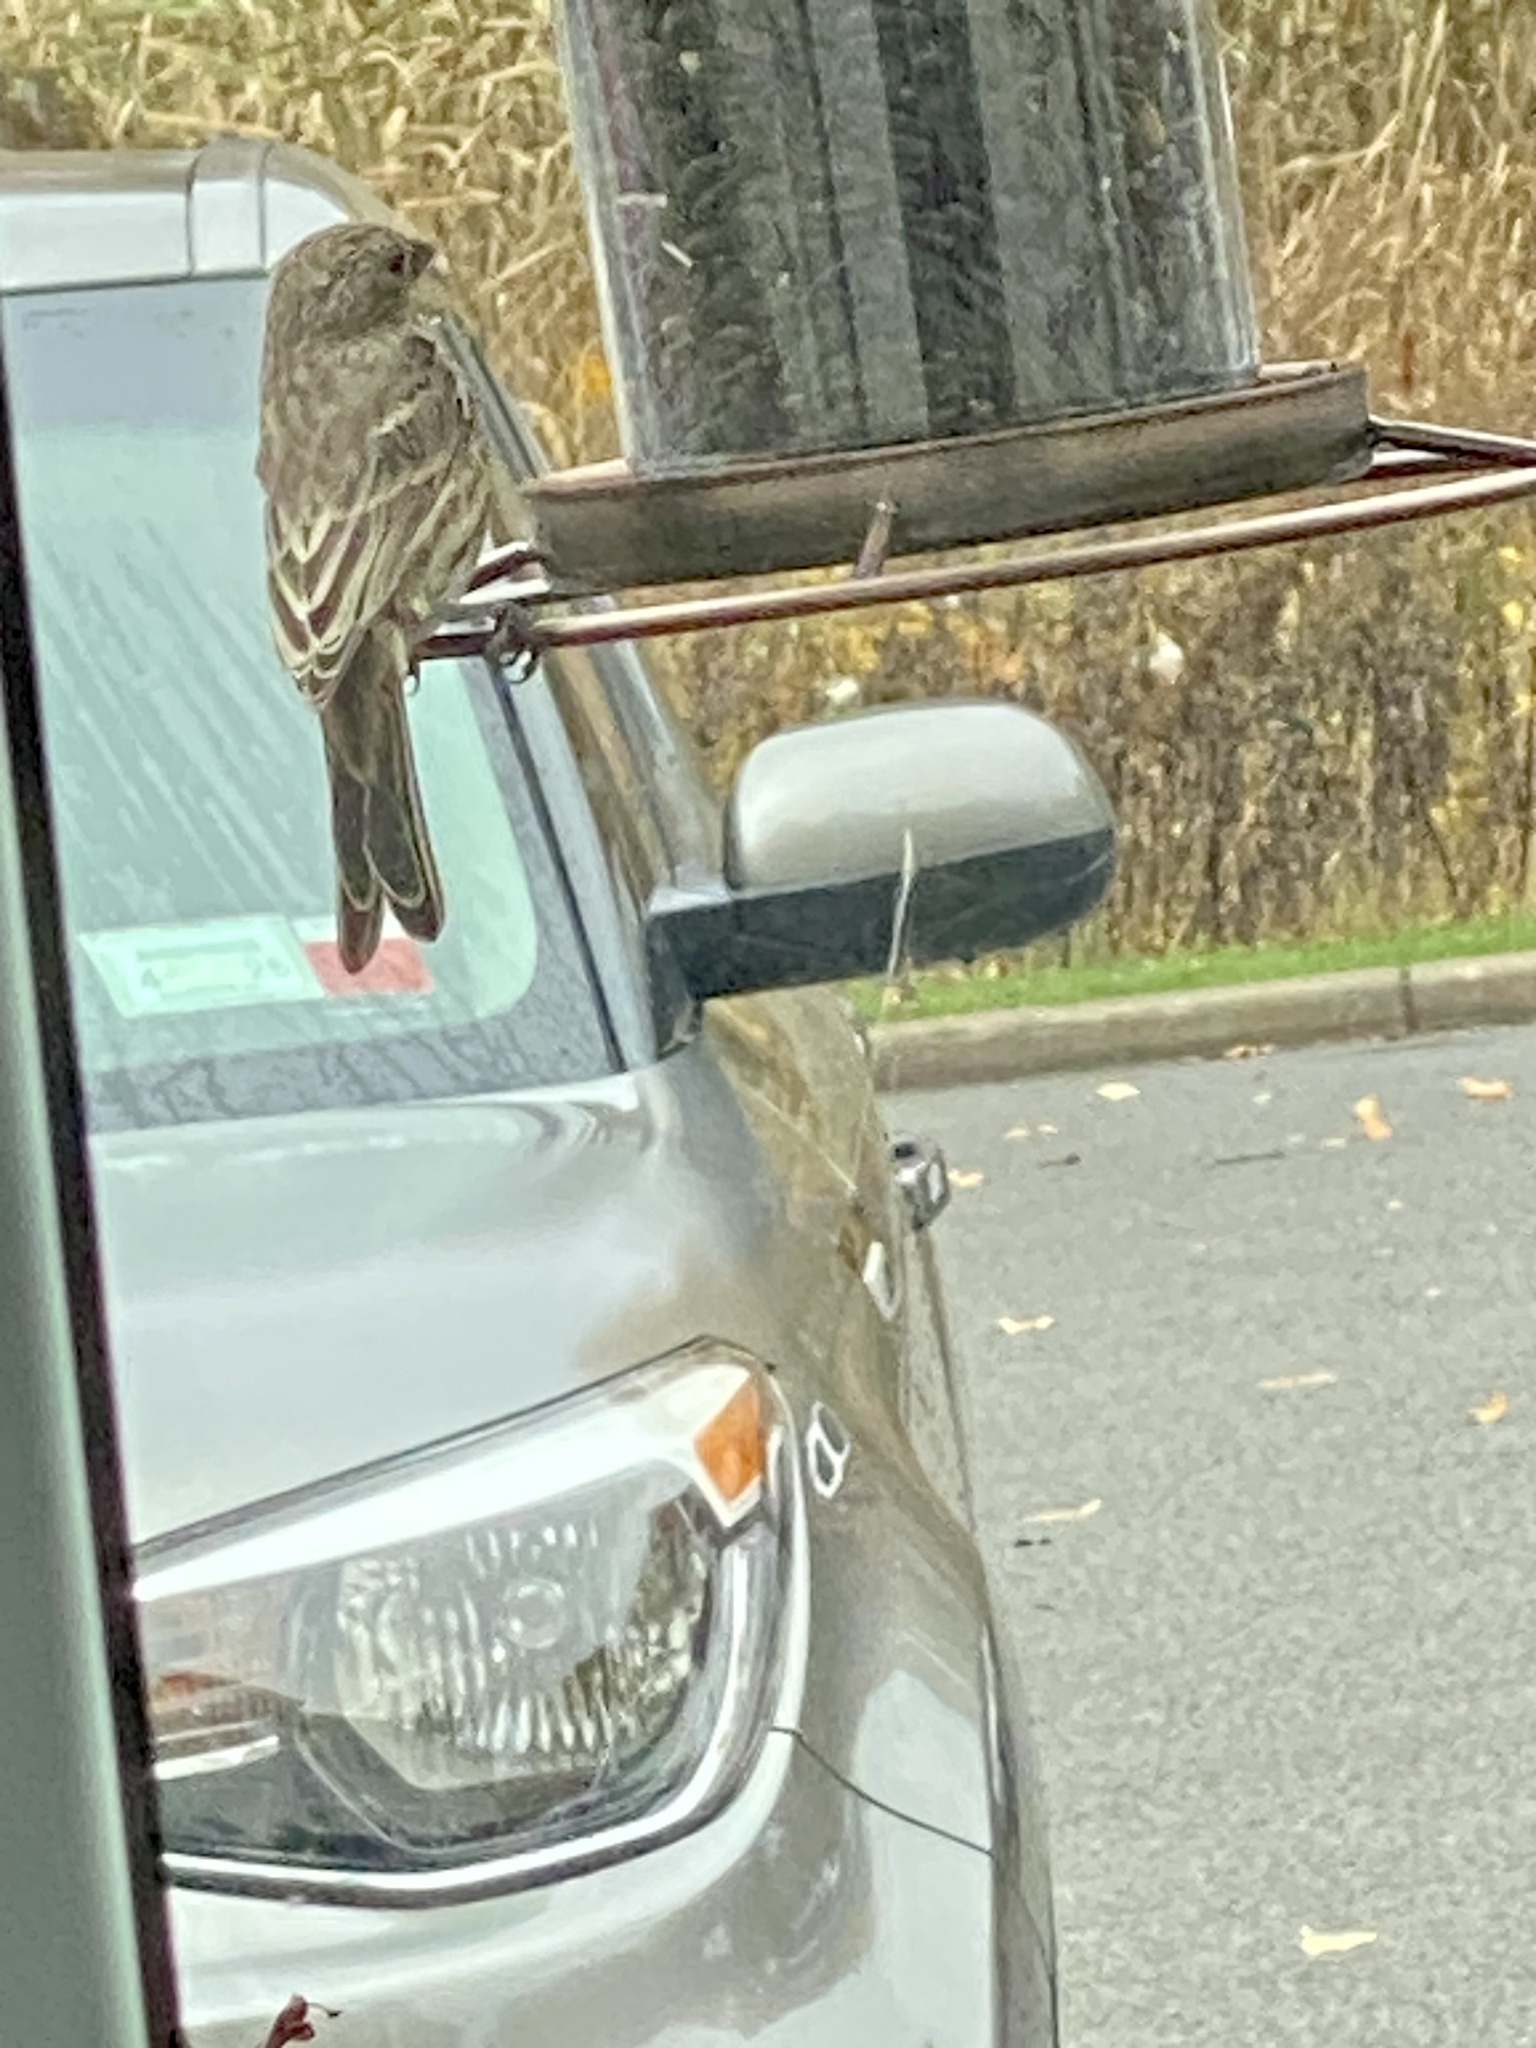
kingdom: Animalia
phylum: Chordata
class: Aves
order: Passeriformes
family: Fringillidae
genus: Haemorhous
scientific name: Haemorhous mexicanus
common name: House finch
